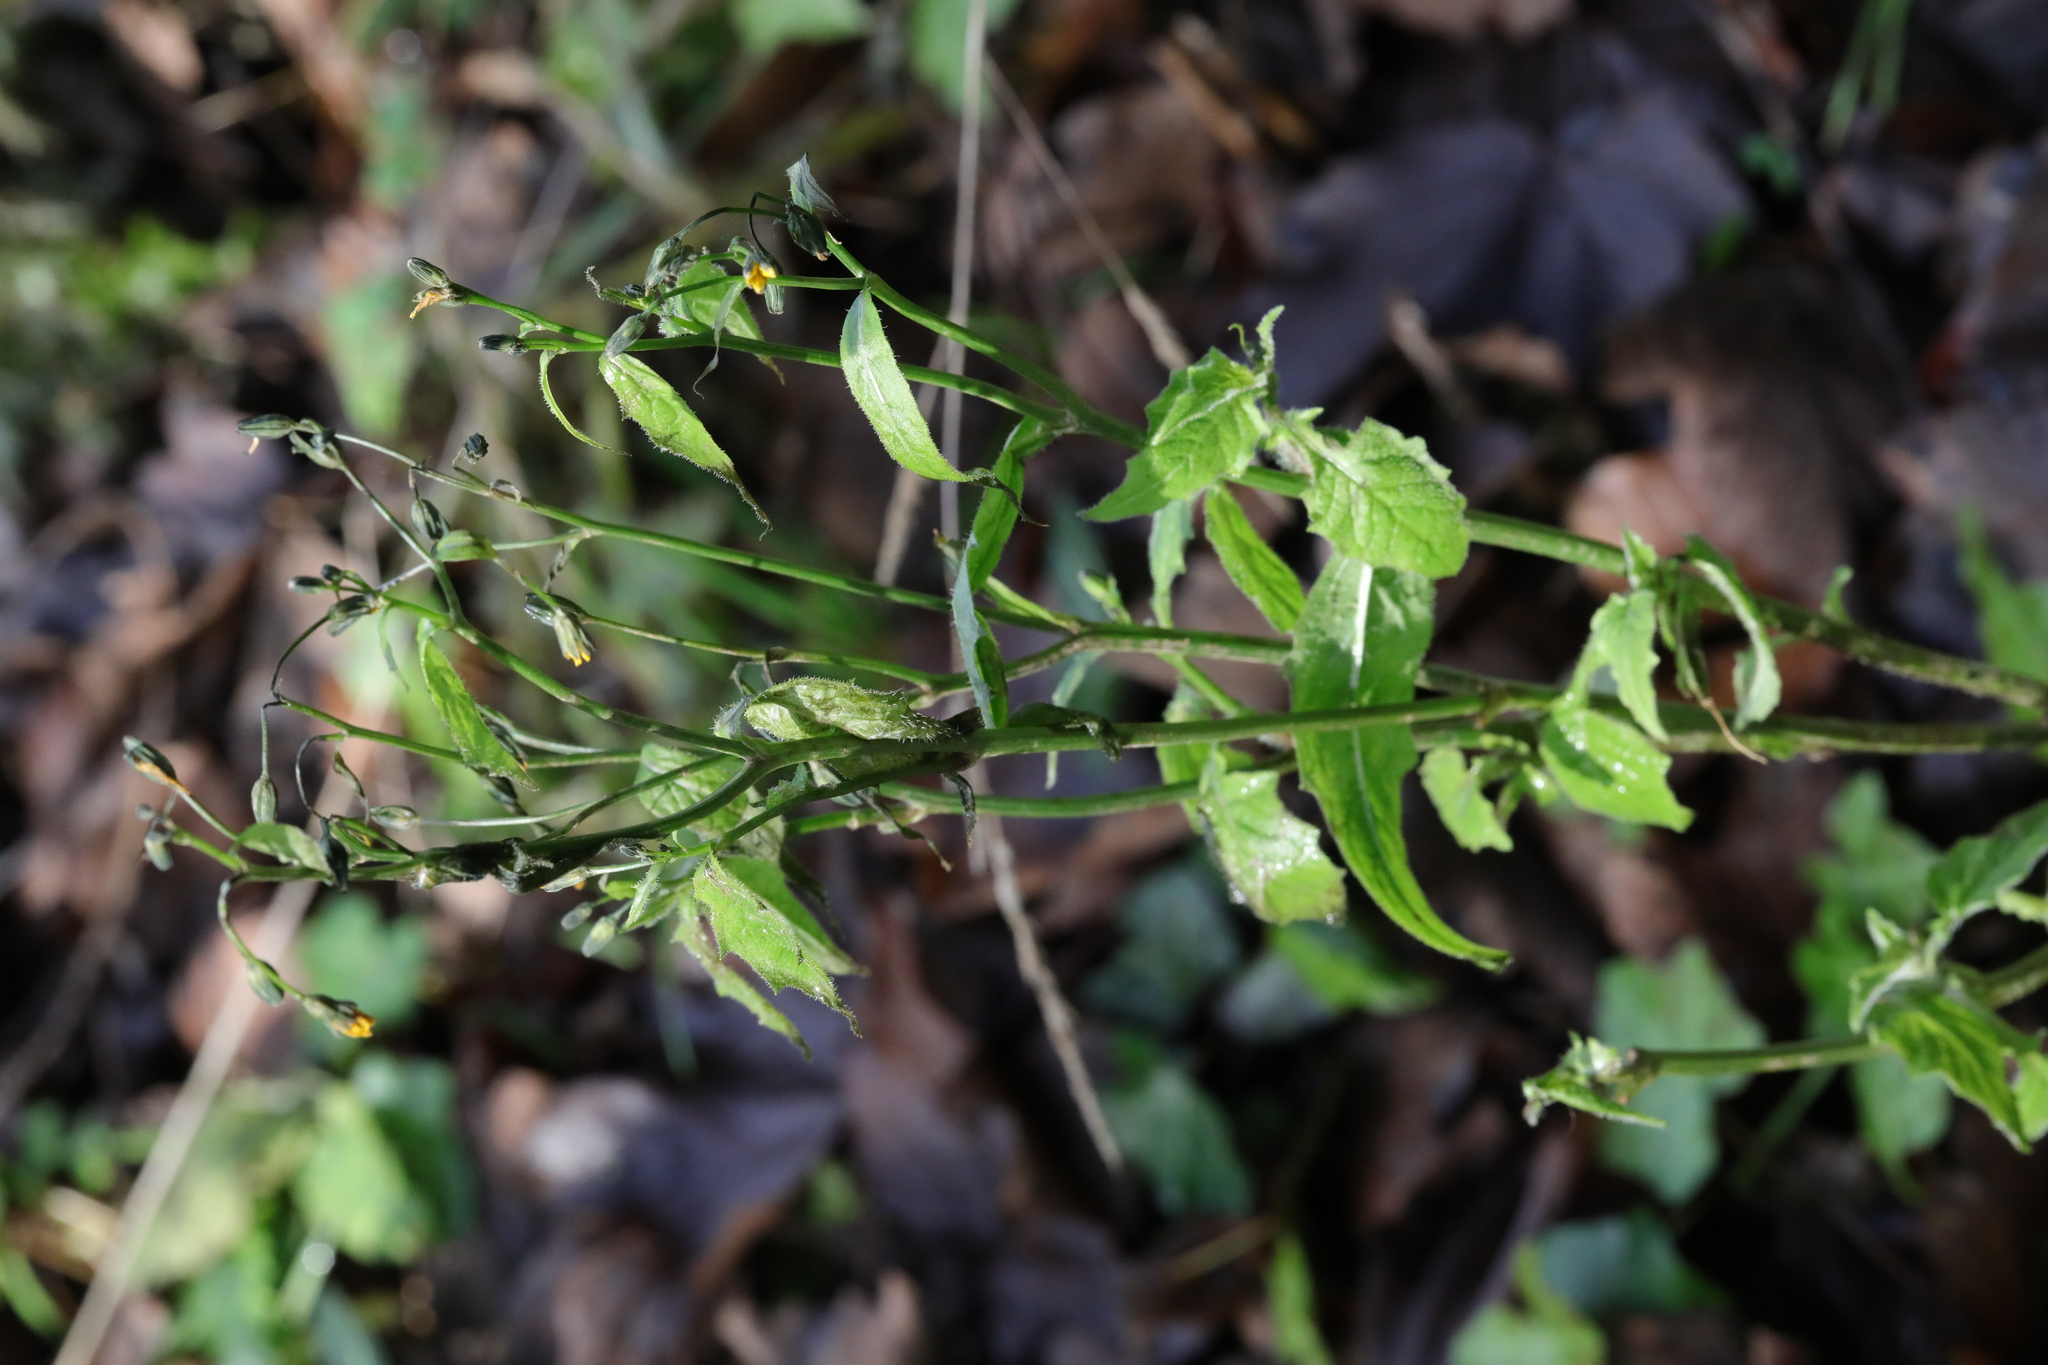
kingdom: Plantae
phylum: Tracheophyta
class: Magnoliopsida
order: Asterales
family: Asteraceae
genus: Lapsana
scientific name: Lapsana communis
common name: Nipplewort
